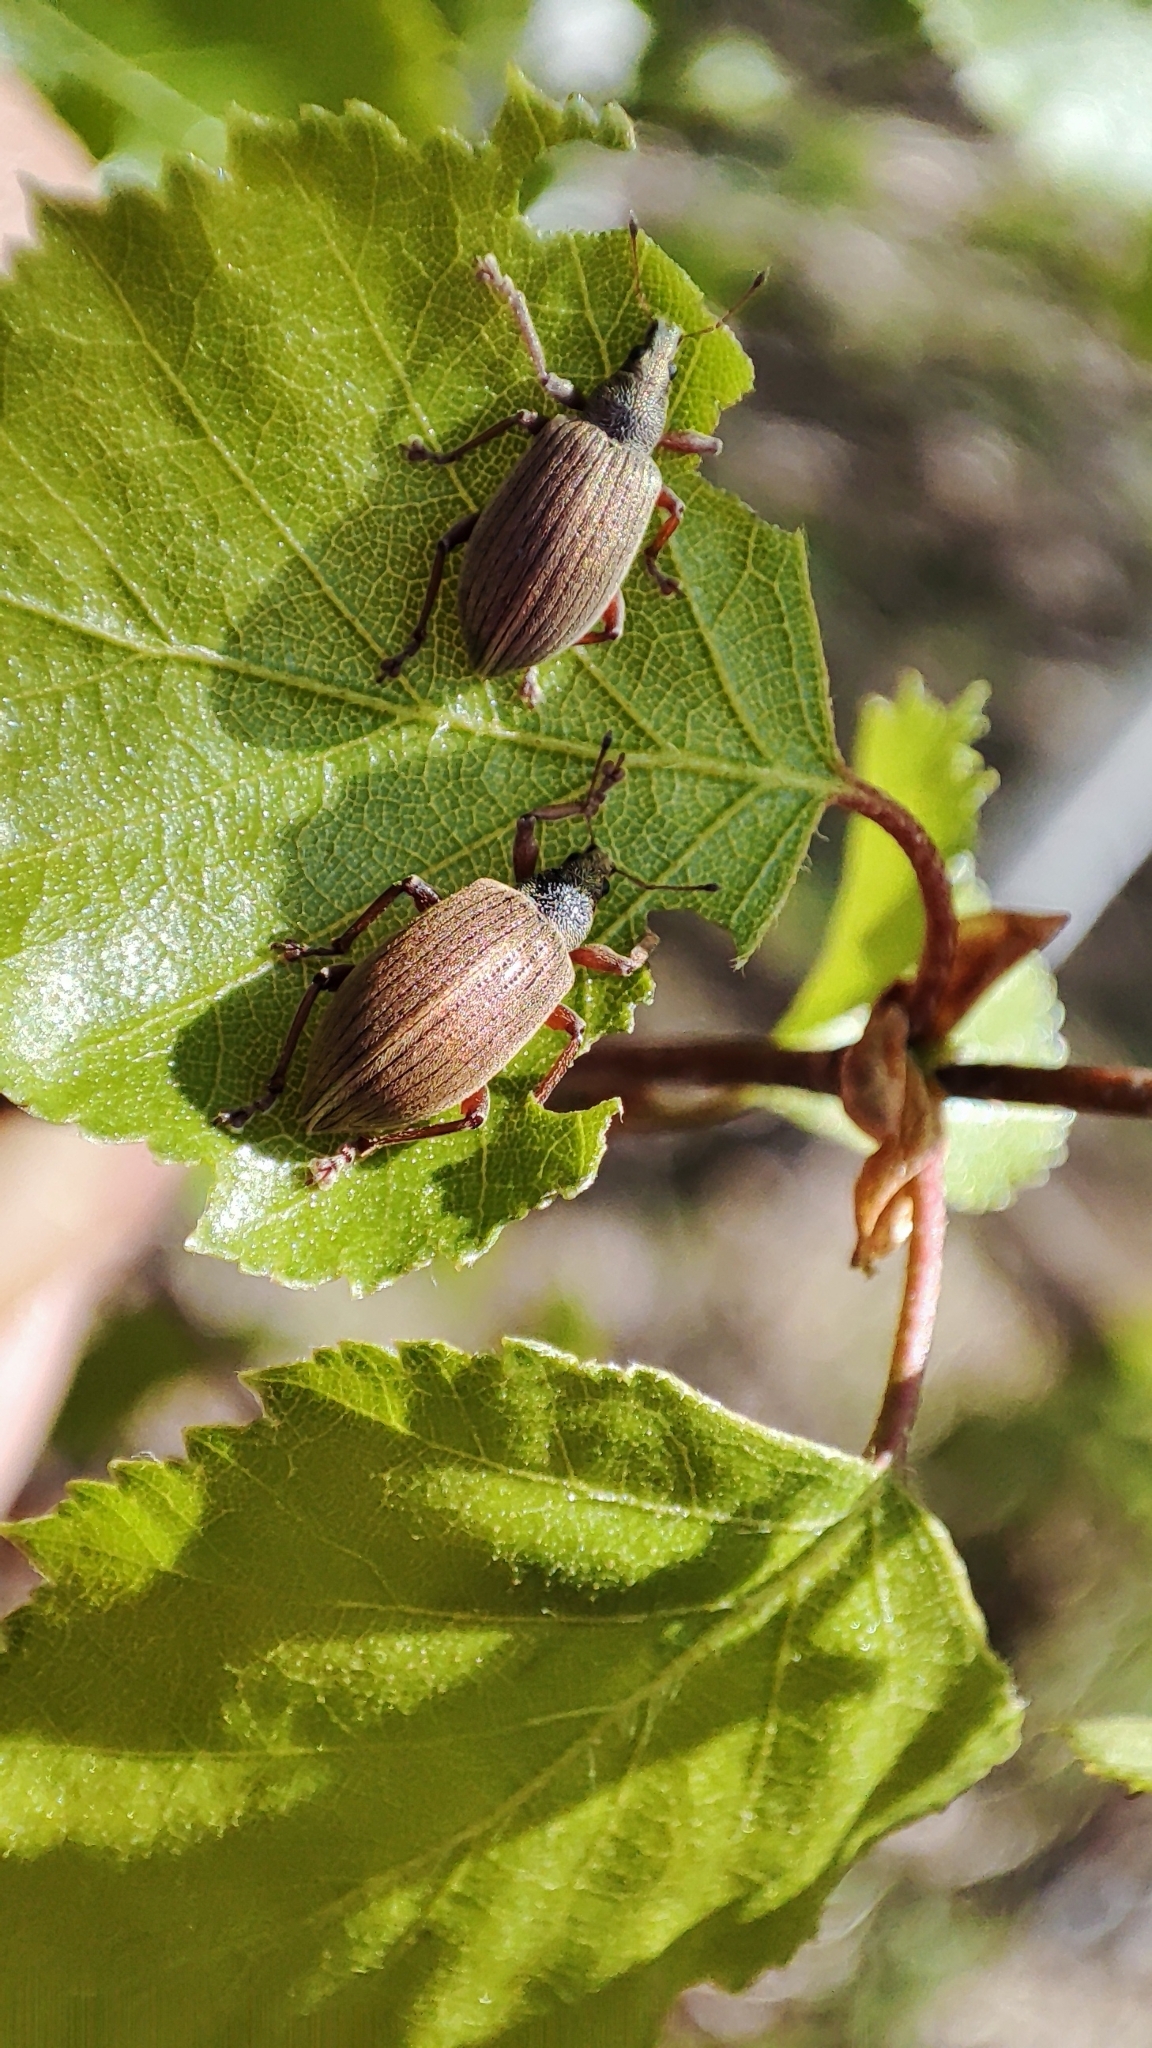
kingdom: Animalia
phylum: Arthropoda
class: Insecta
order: Coleoptera
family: Curculionidae
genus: Polydrusus
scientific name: Polydrusus mollis
